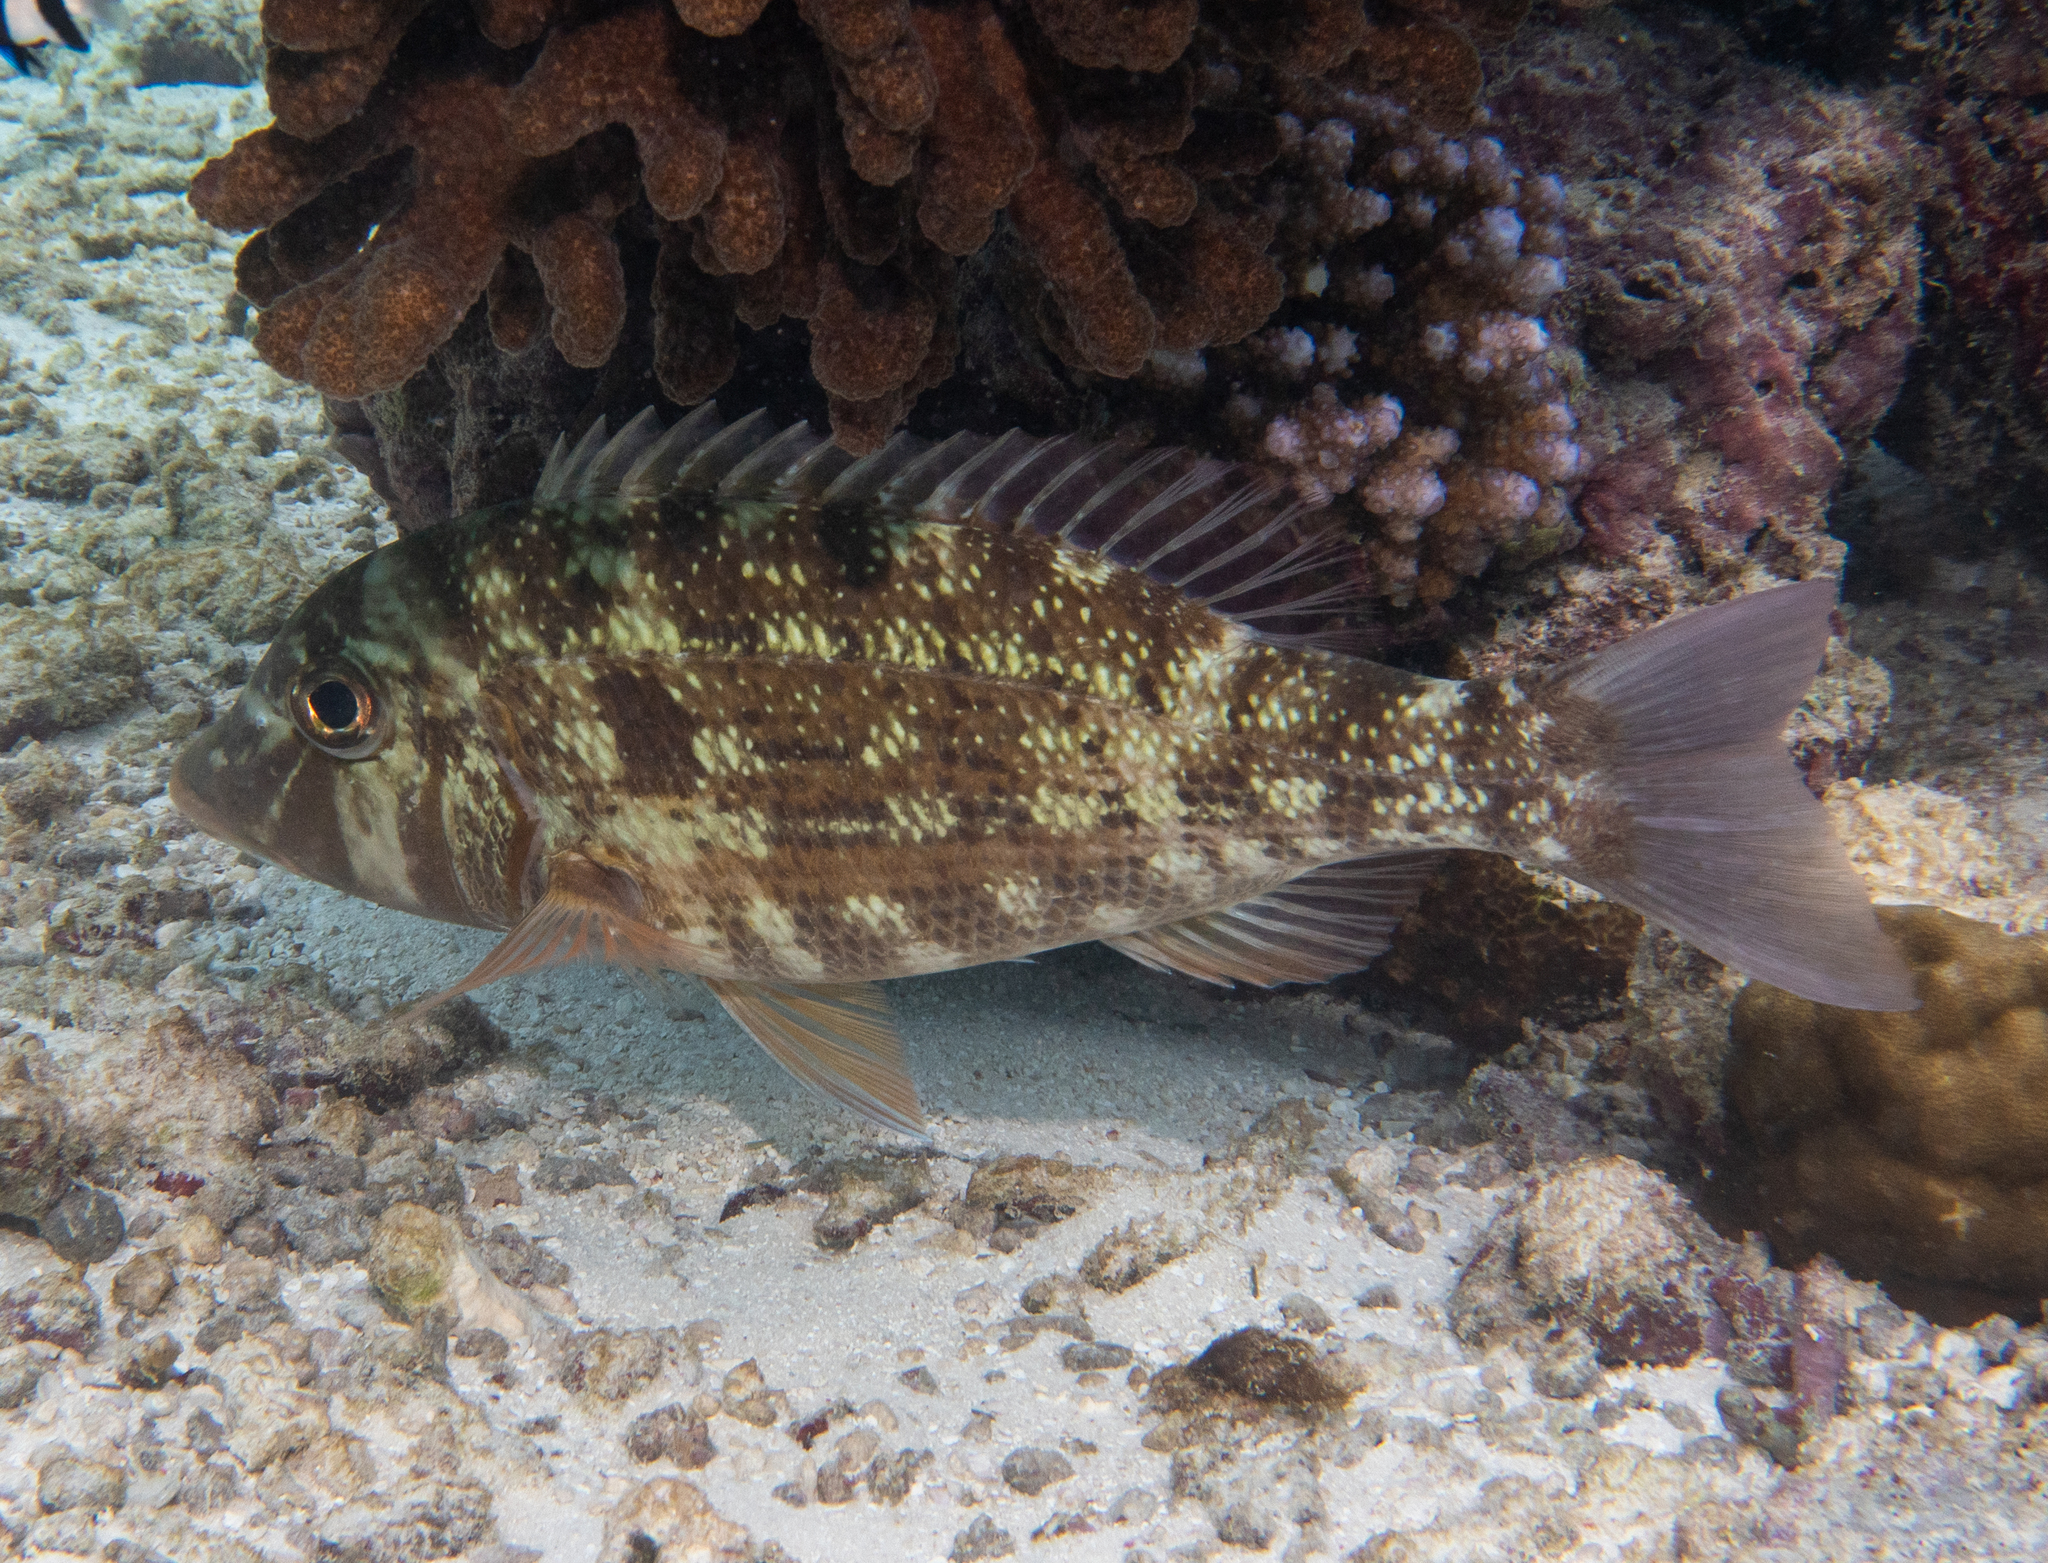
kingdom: Animalia
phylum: Chordata
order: Perciformes
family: Lethrinidae
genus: Lethrinus
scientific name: Lethrinus obsoletus
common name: Orange-striped emperor
